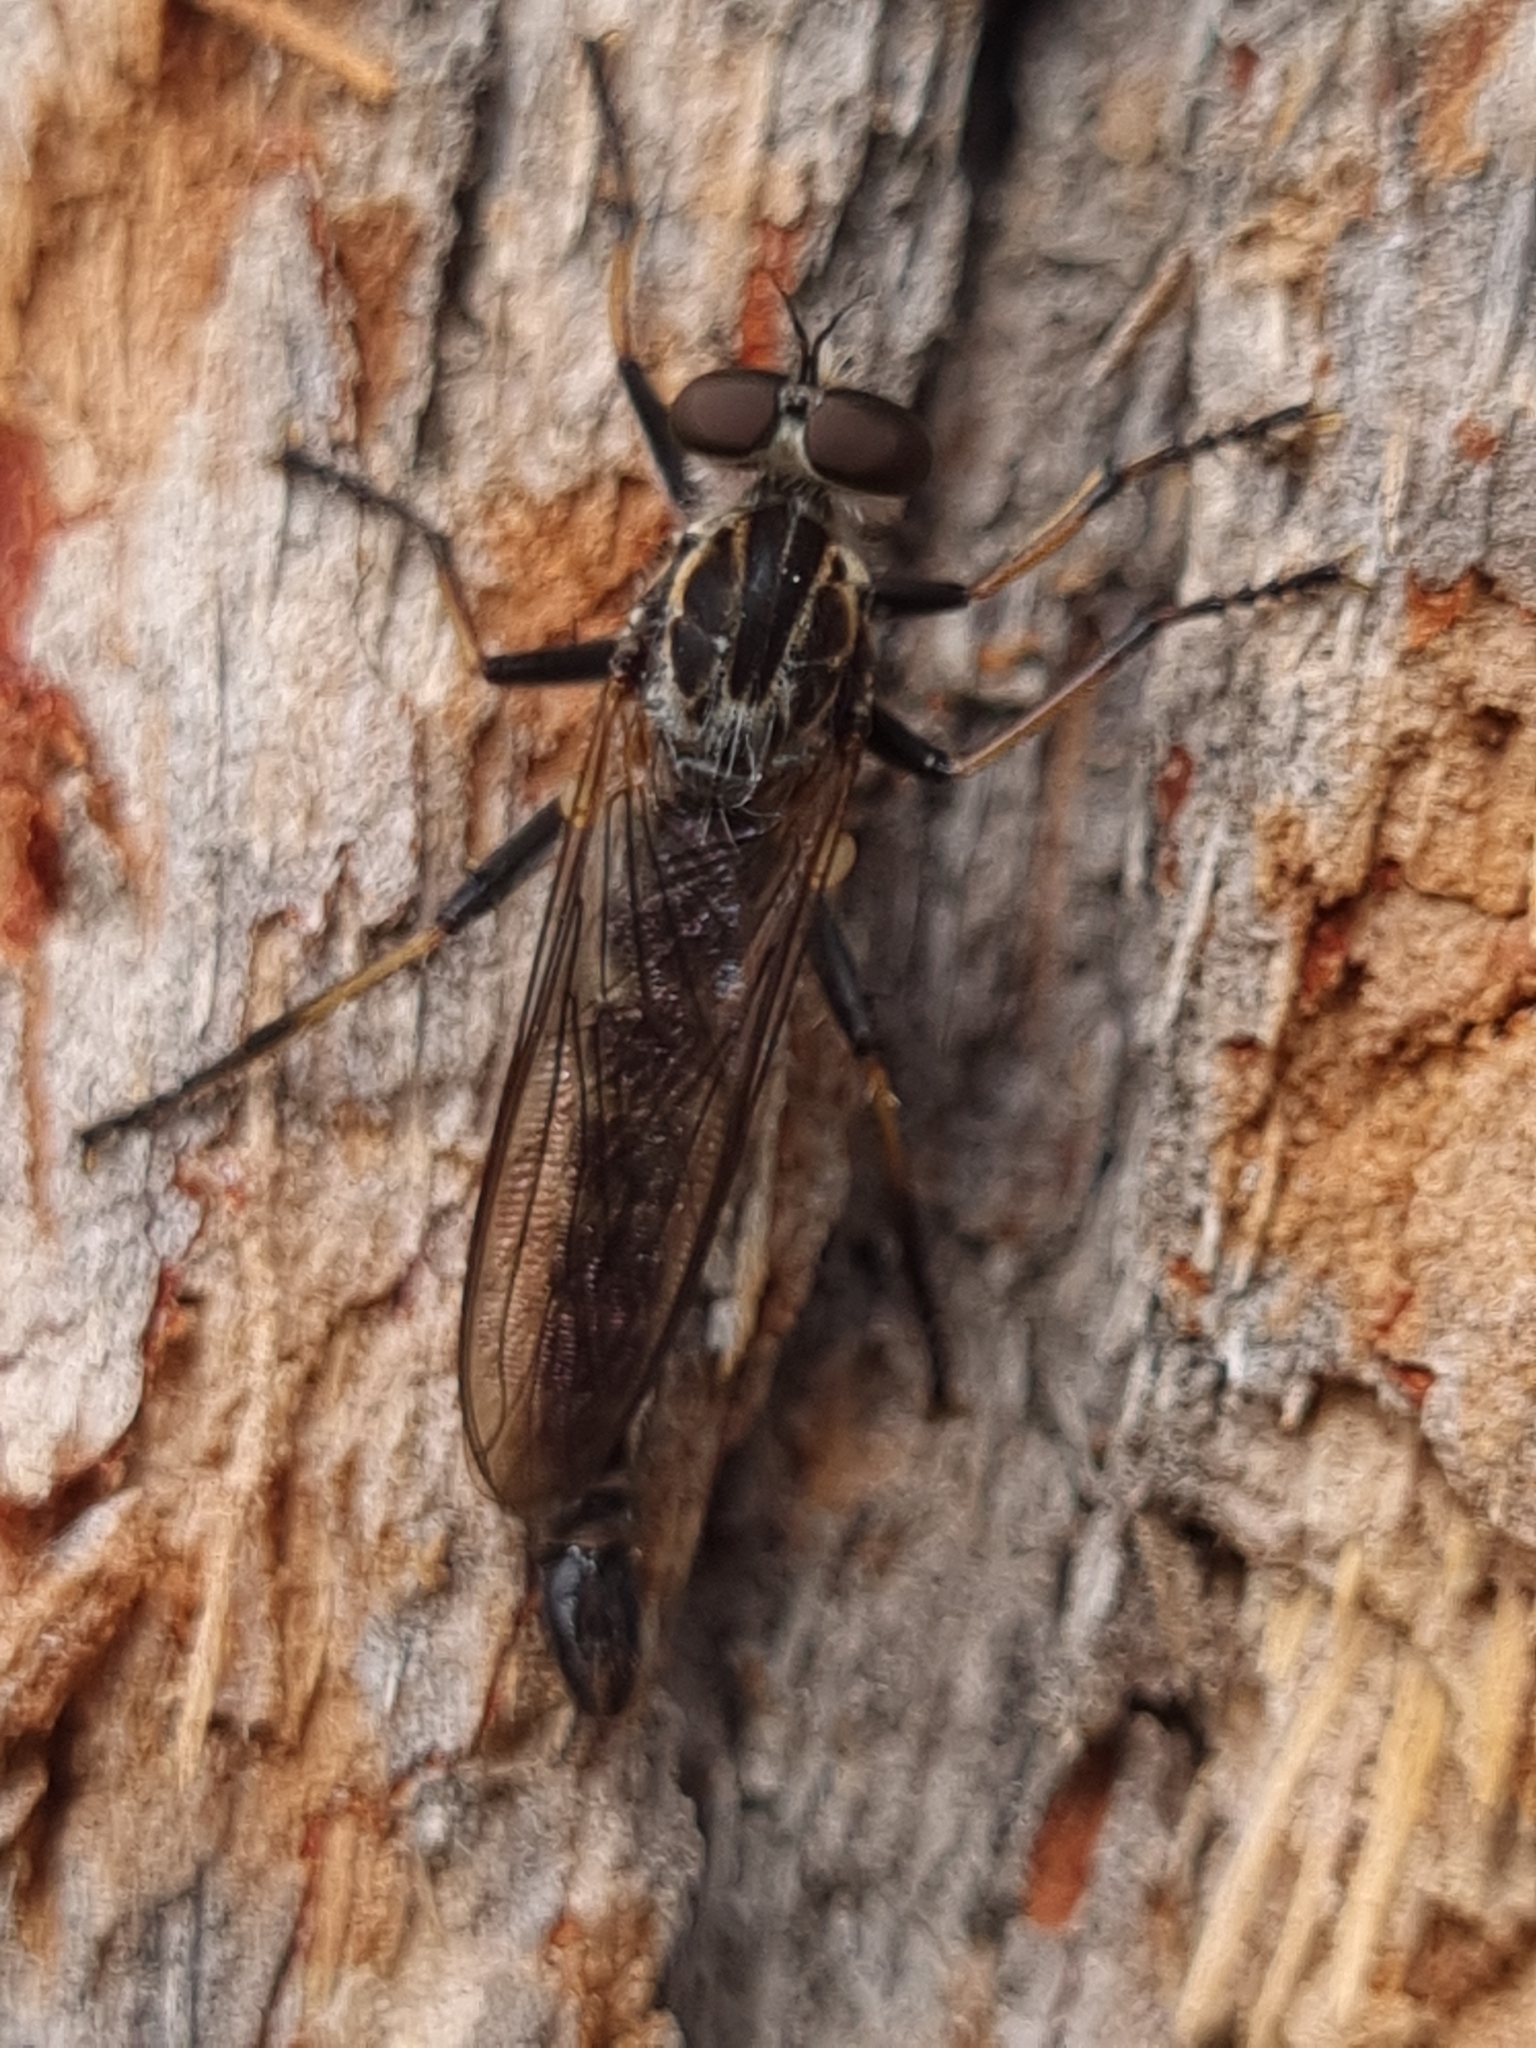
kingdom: Animalia
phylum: Arthropoda
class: Insecta
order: Diptera
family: Asilidae
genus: Cerdistus
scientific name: Cerdistus
